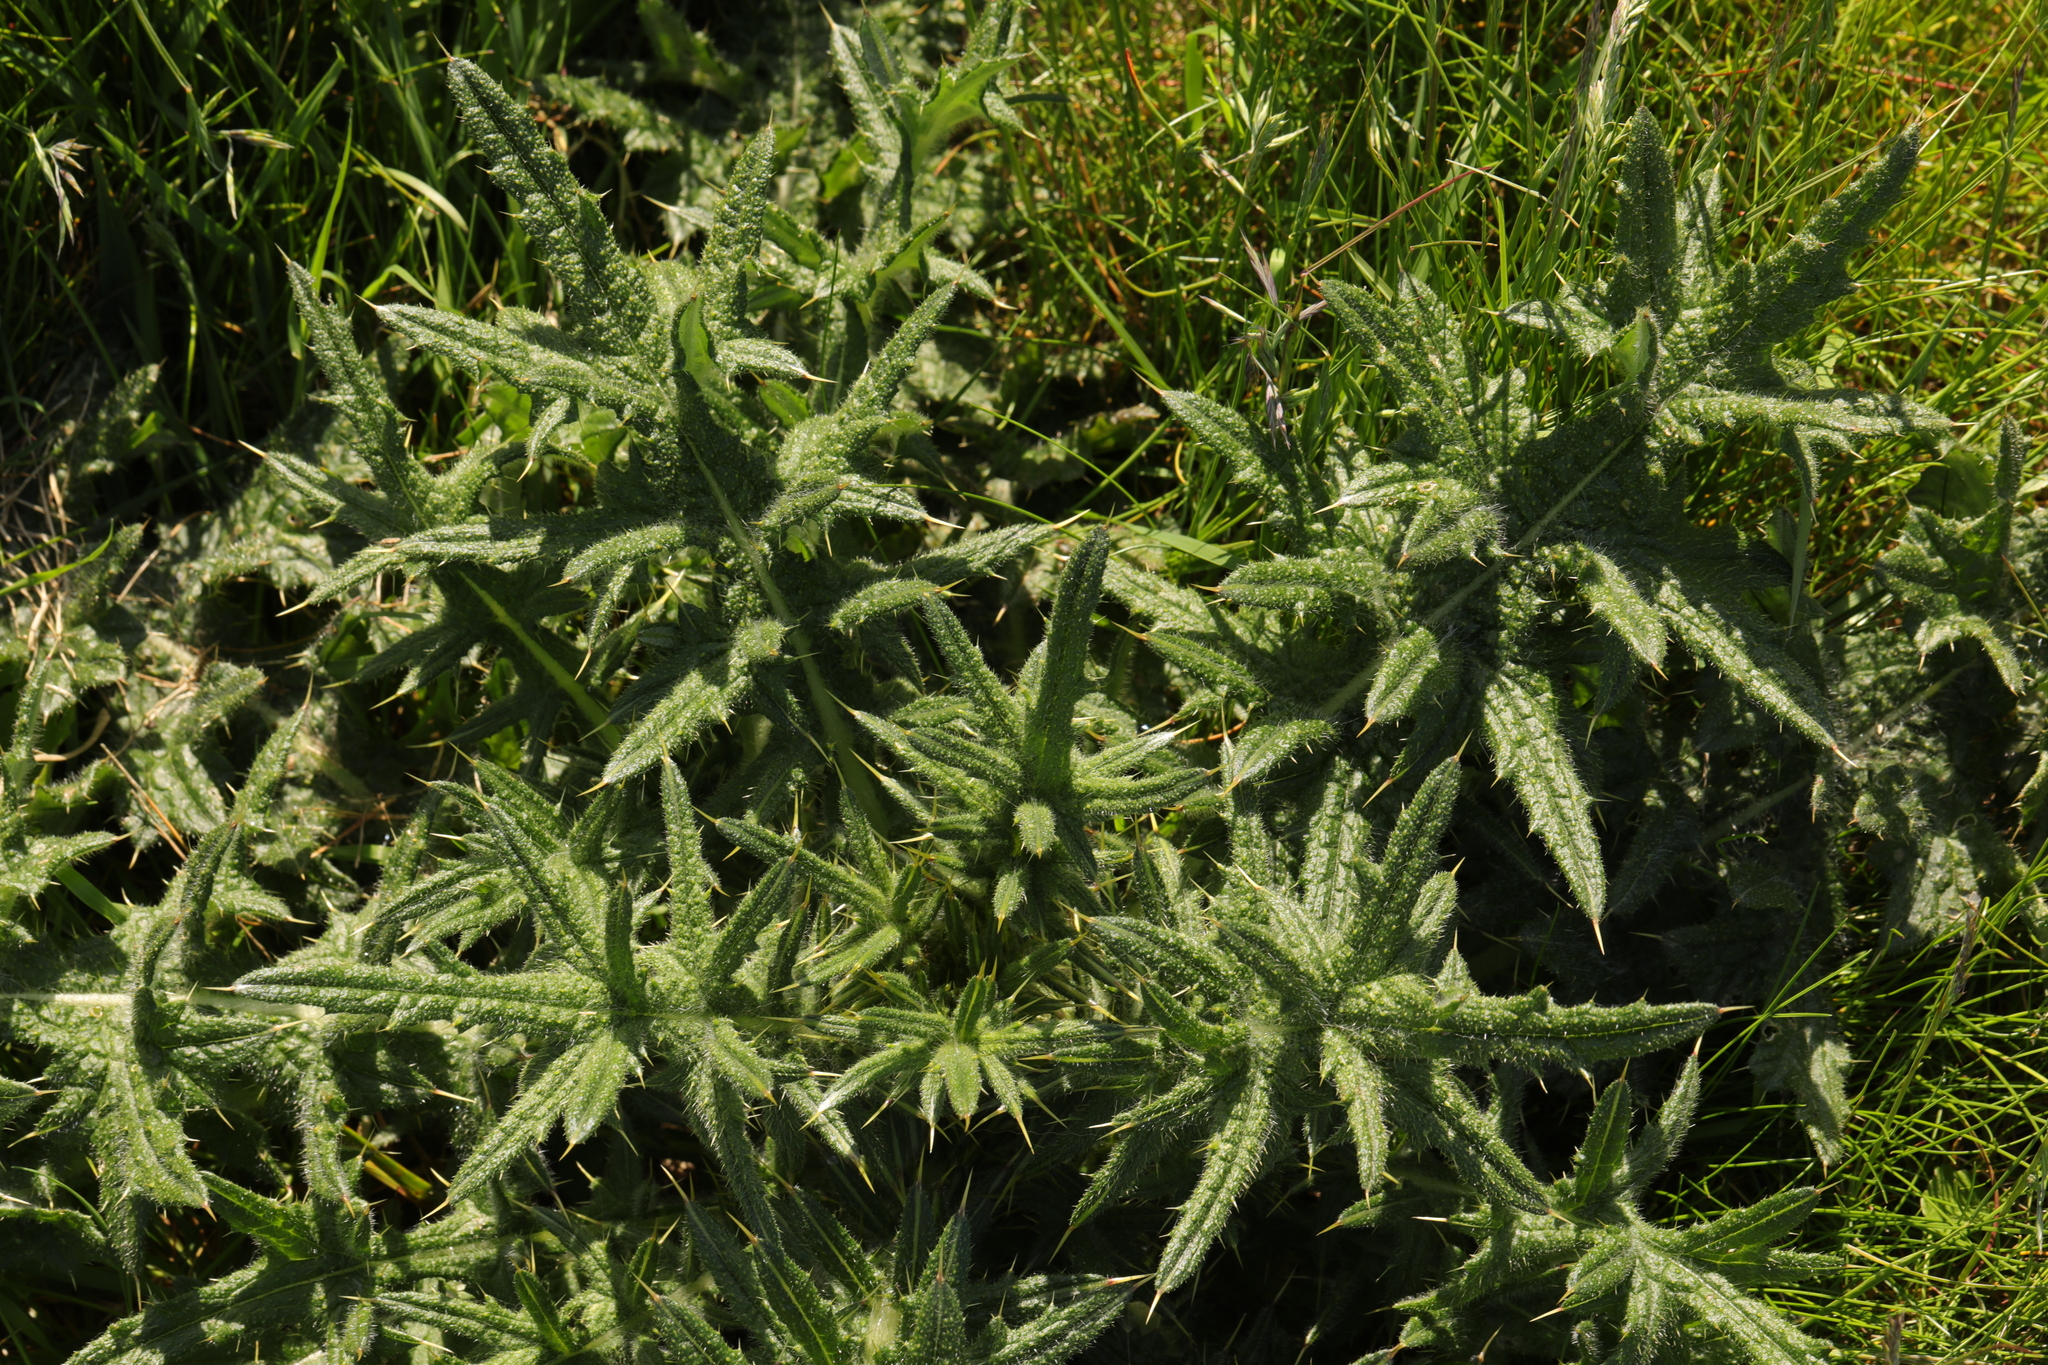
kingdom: Plantae
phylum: Tracheophyta
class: Magnoliopsida
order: Asterales
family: Asteraceae
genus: Cirsium
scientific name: Cirsium vulgare
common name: Bull thistle
